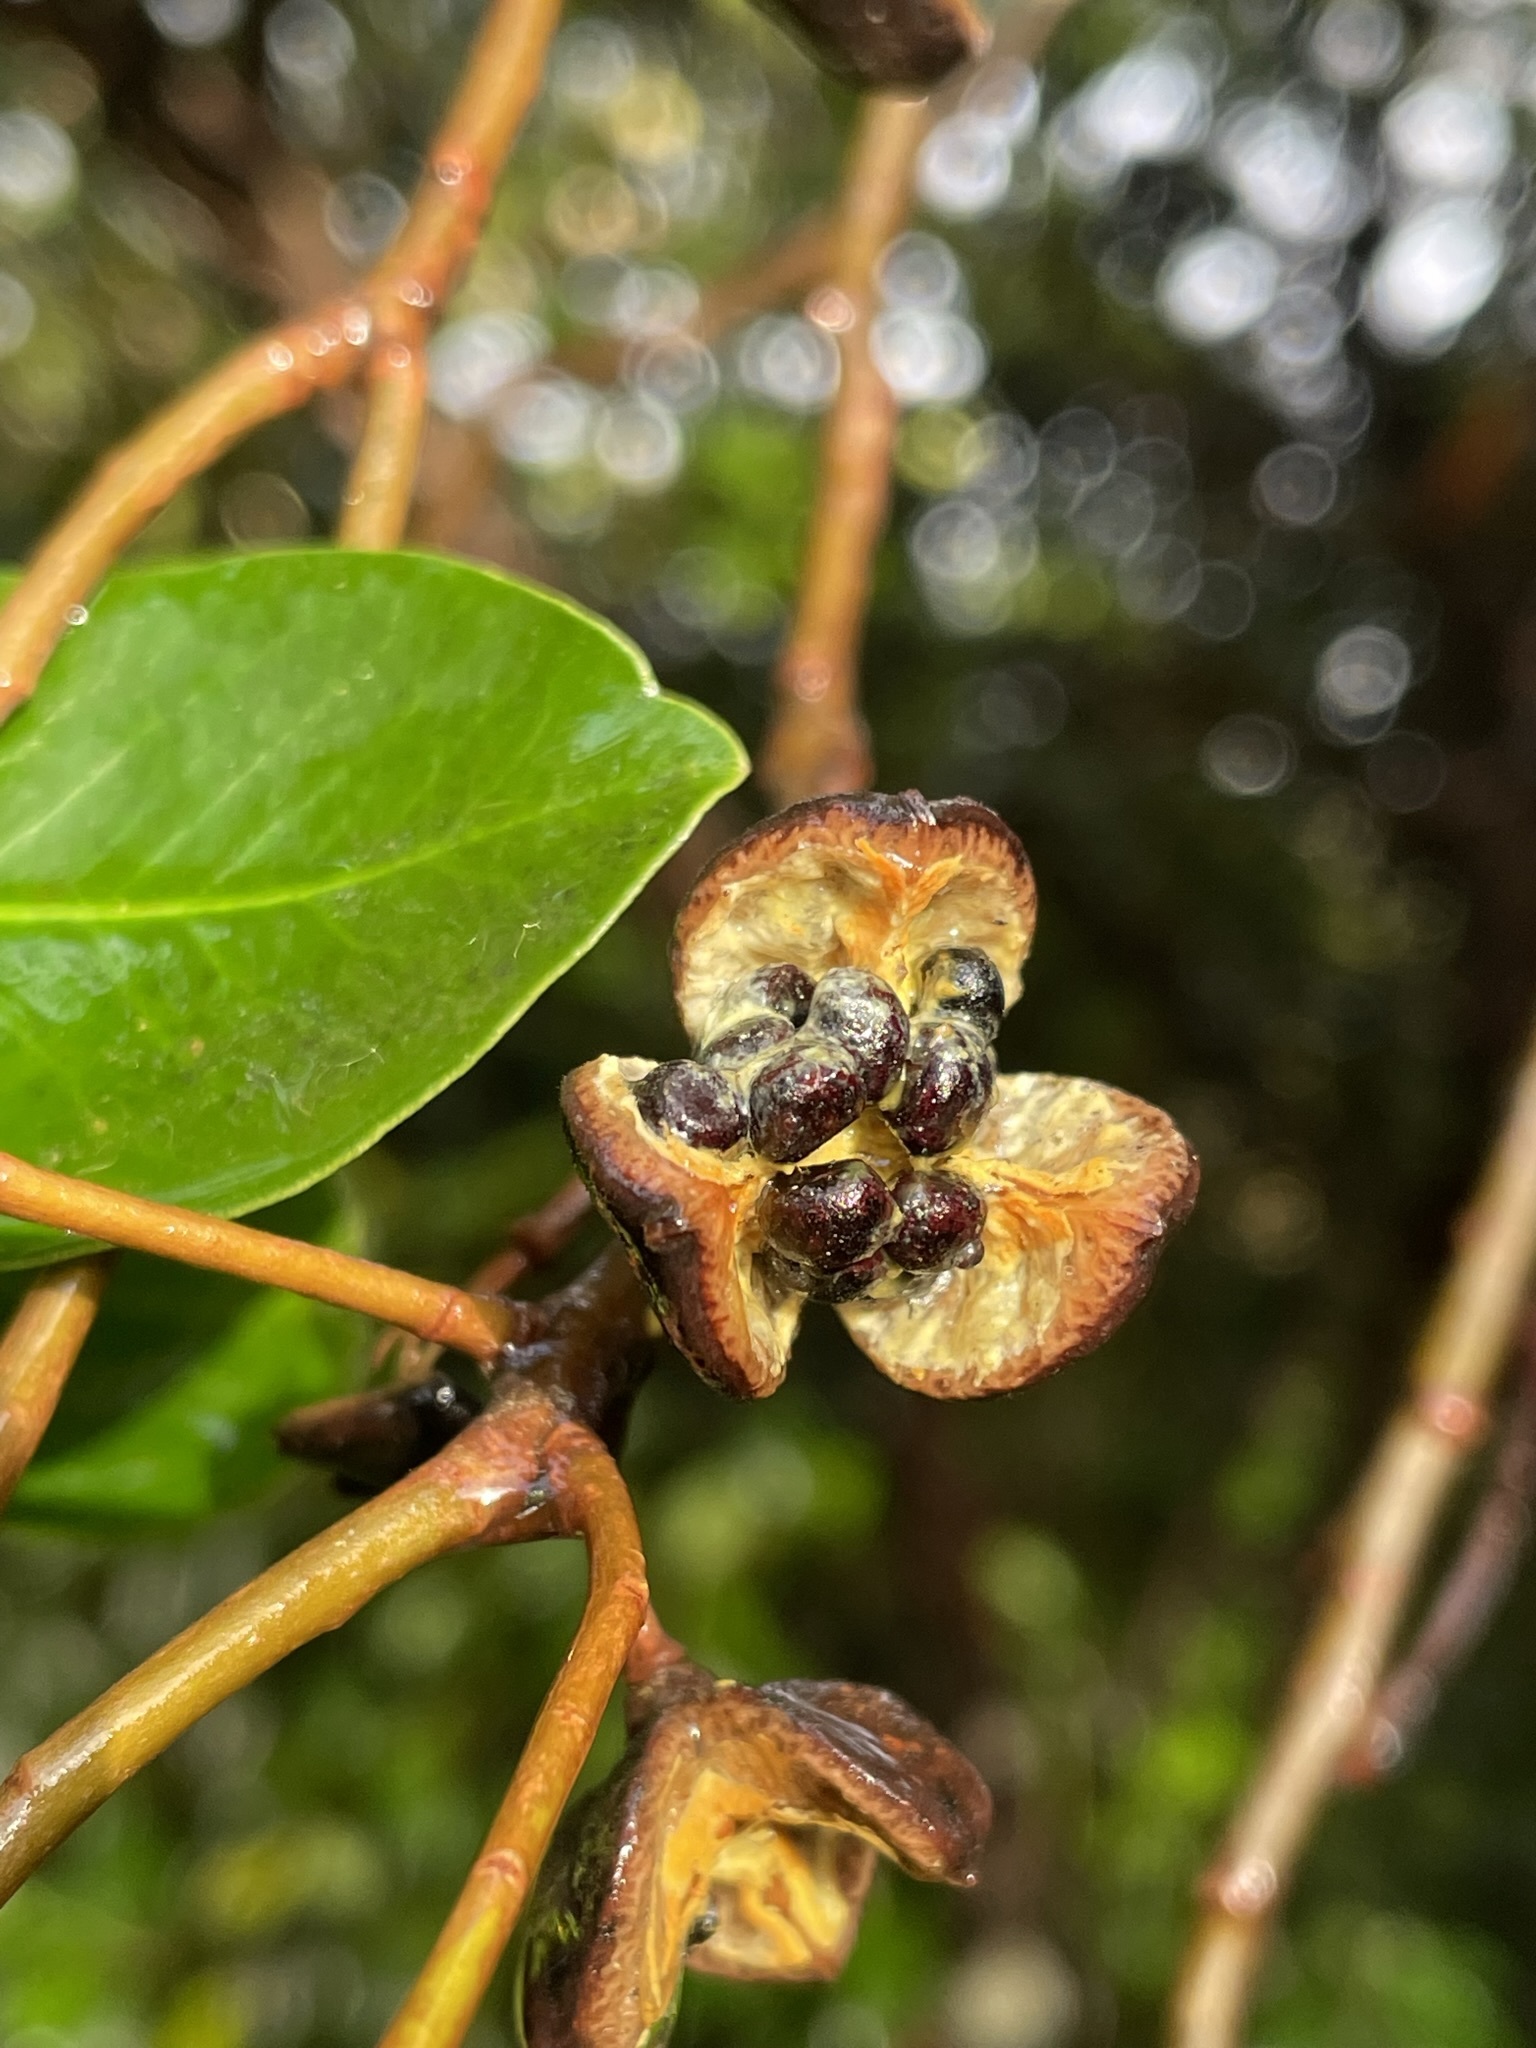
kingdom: Plantae
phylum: Tracheophyta
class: Magnoliopsida
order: Apiales
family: Pittosporaceae
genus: Pittosporum
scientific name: Pittosporum colensoi
